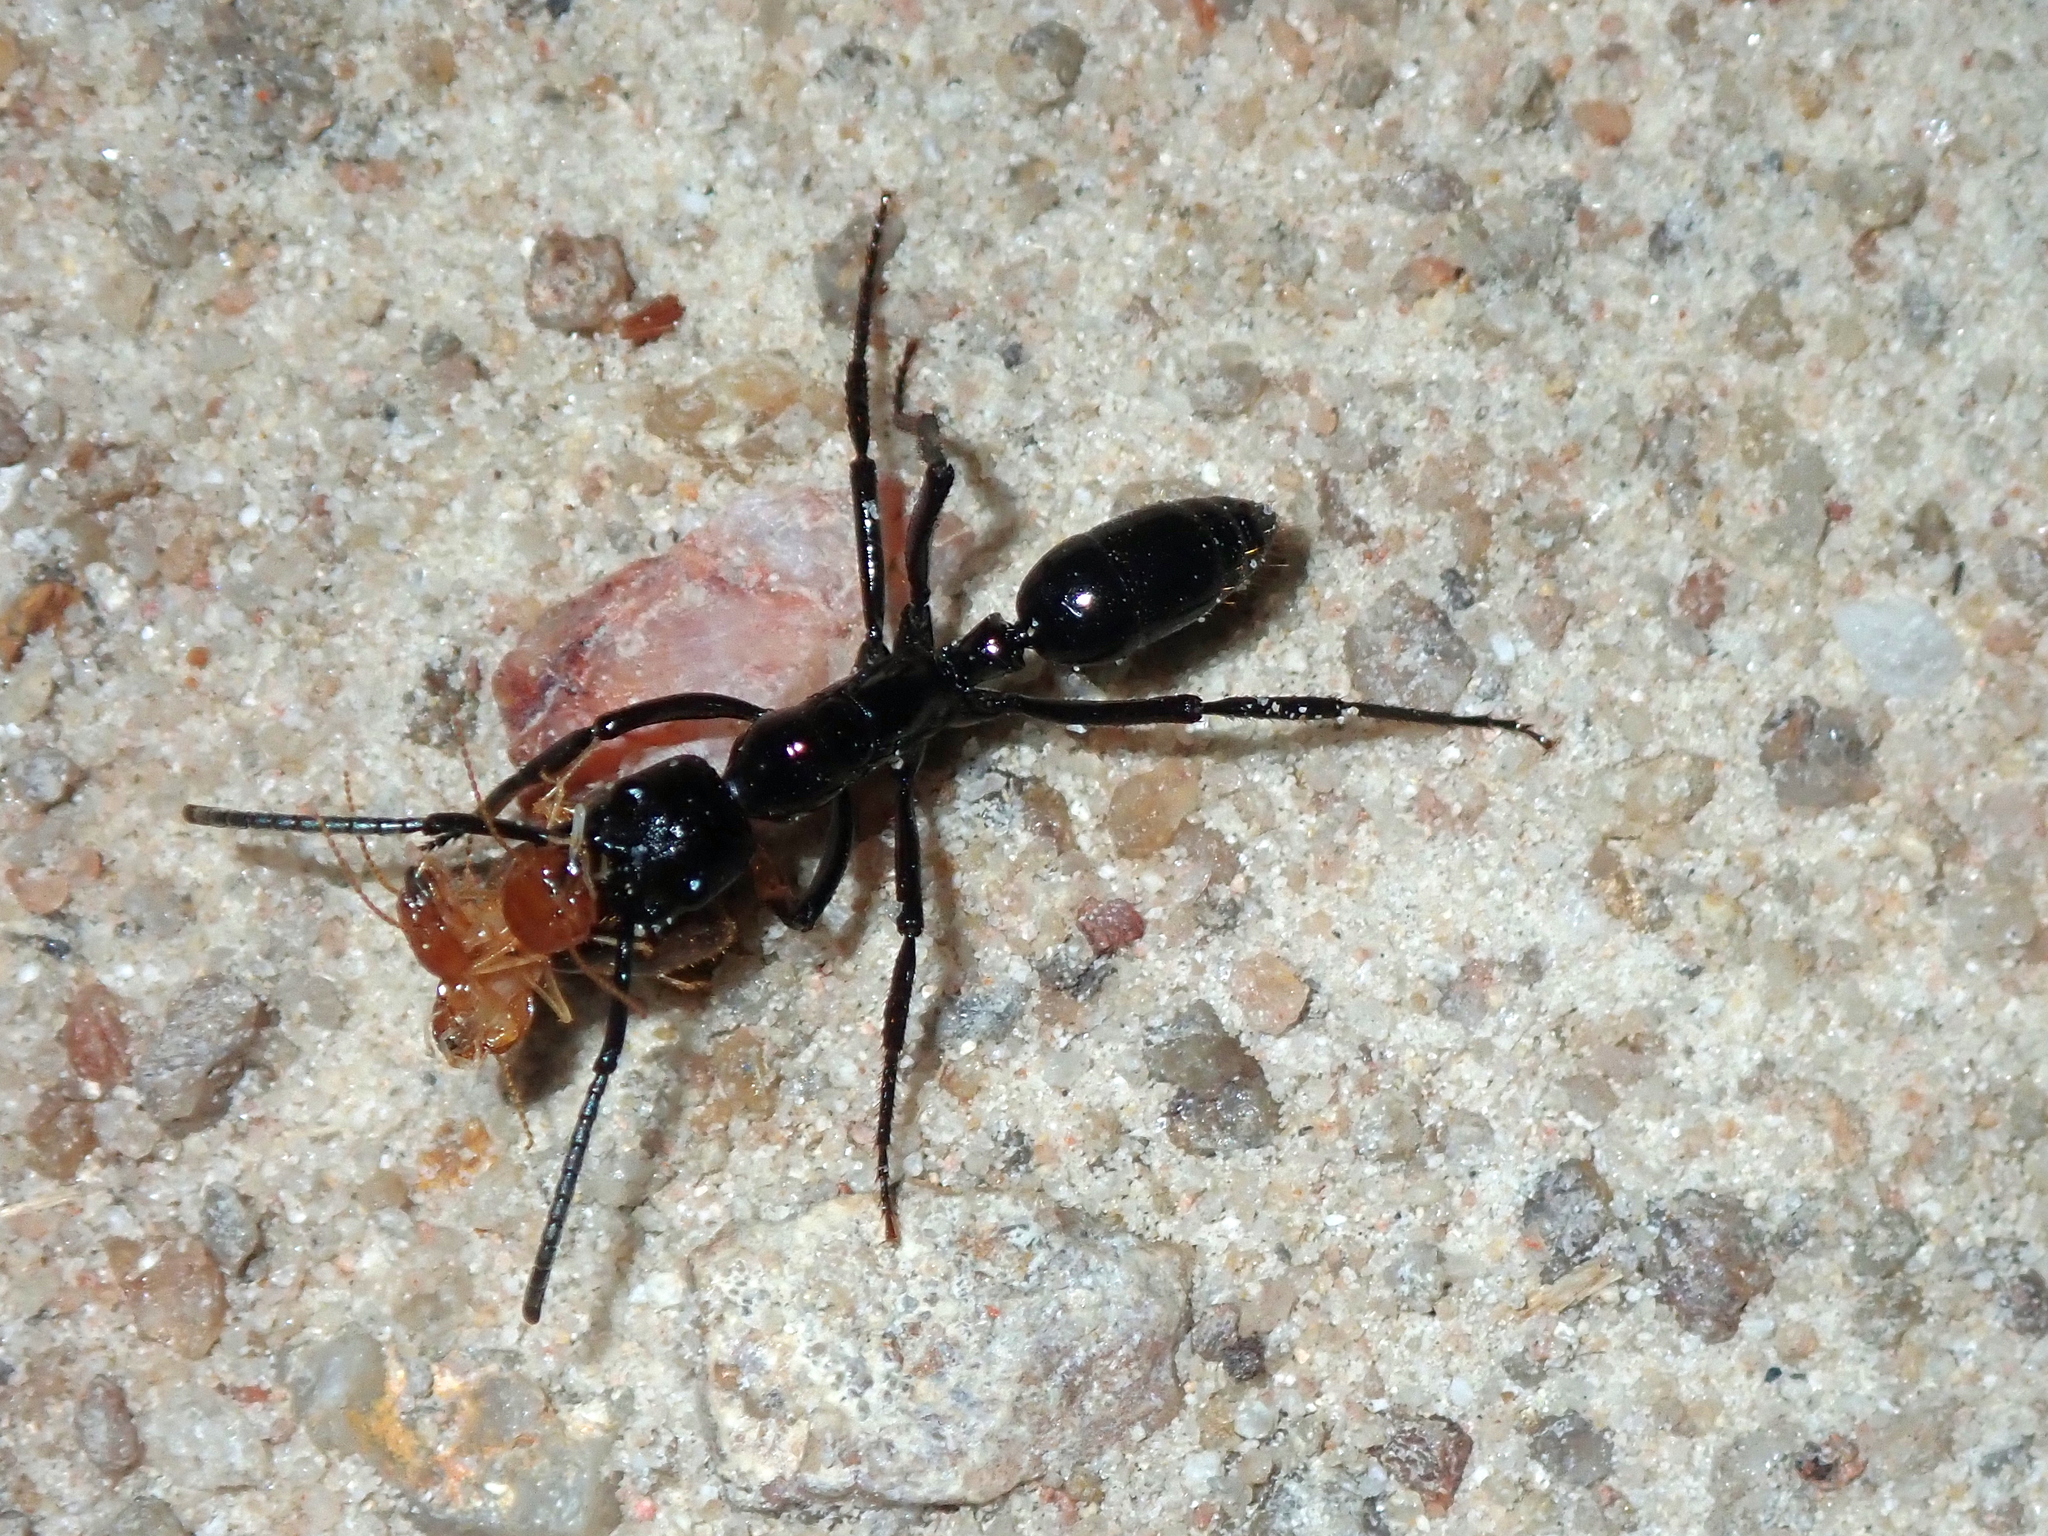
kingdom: Animalia
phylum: Arthropoda
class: Insecta
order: Hymenoptera
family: Formicidae
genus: Pachycondyla
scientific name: Pachycondyla commutata
